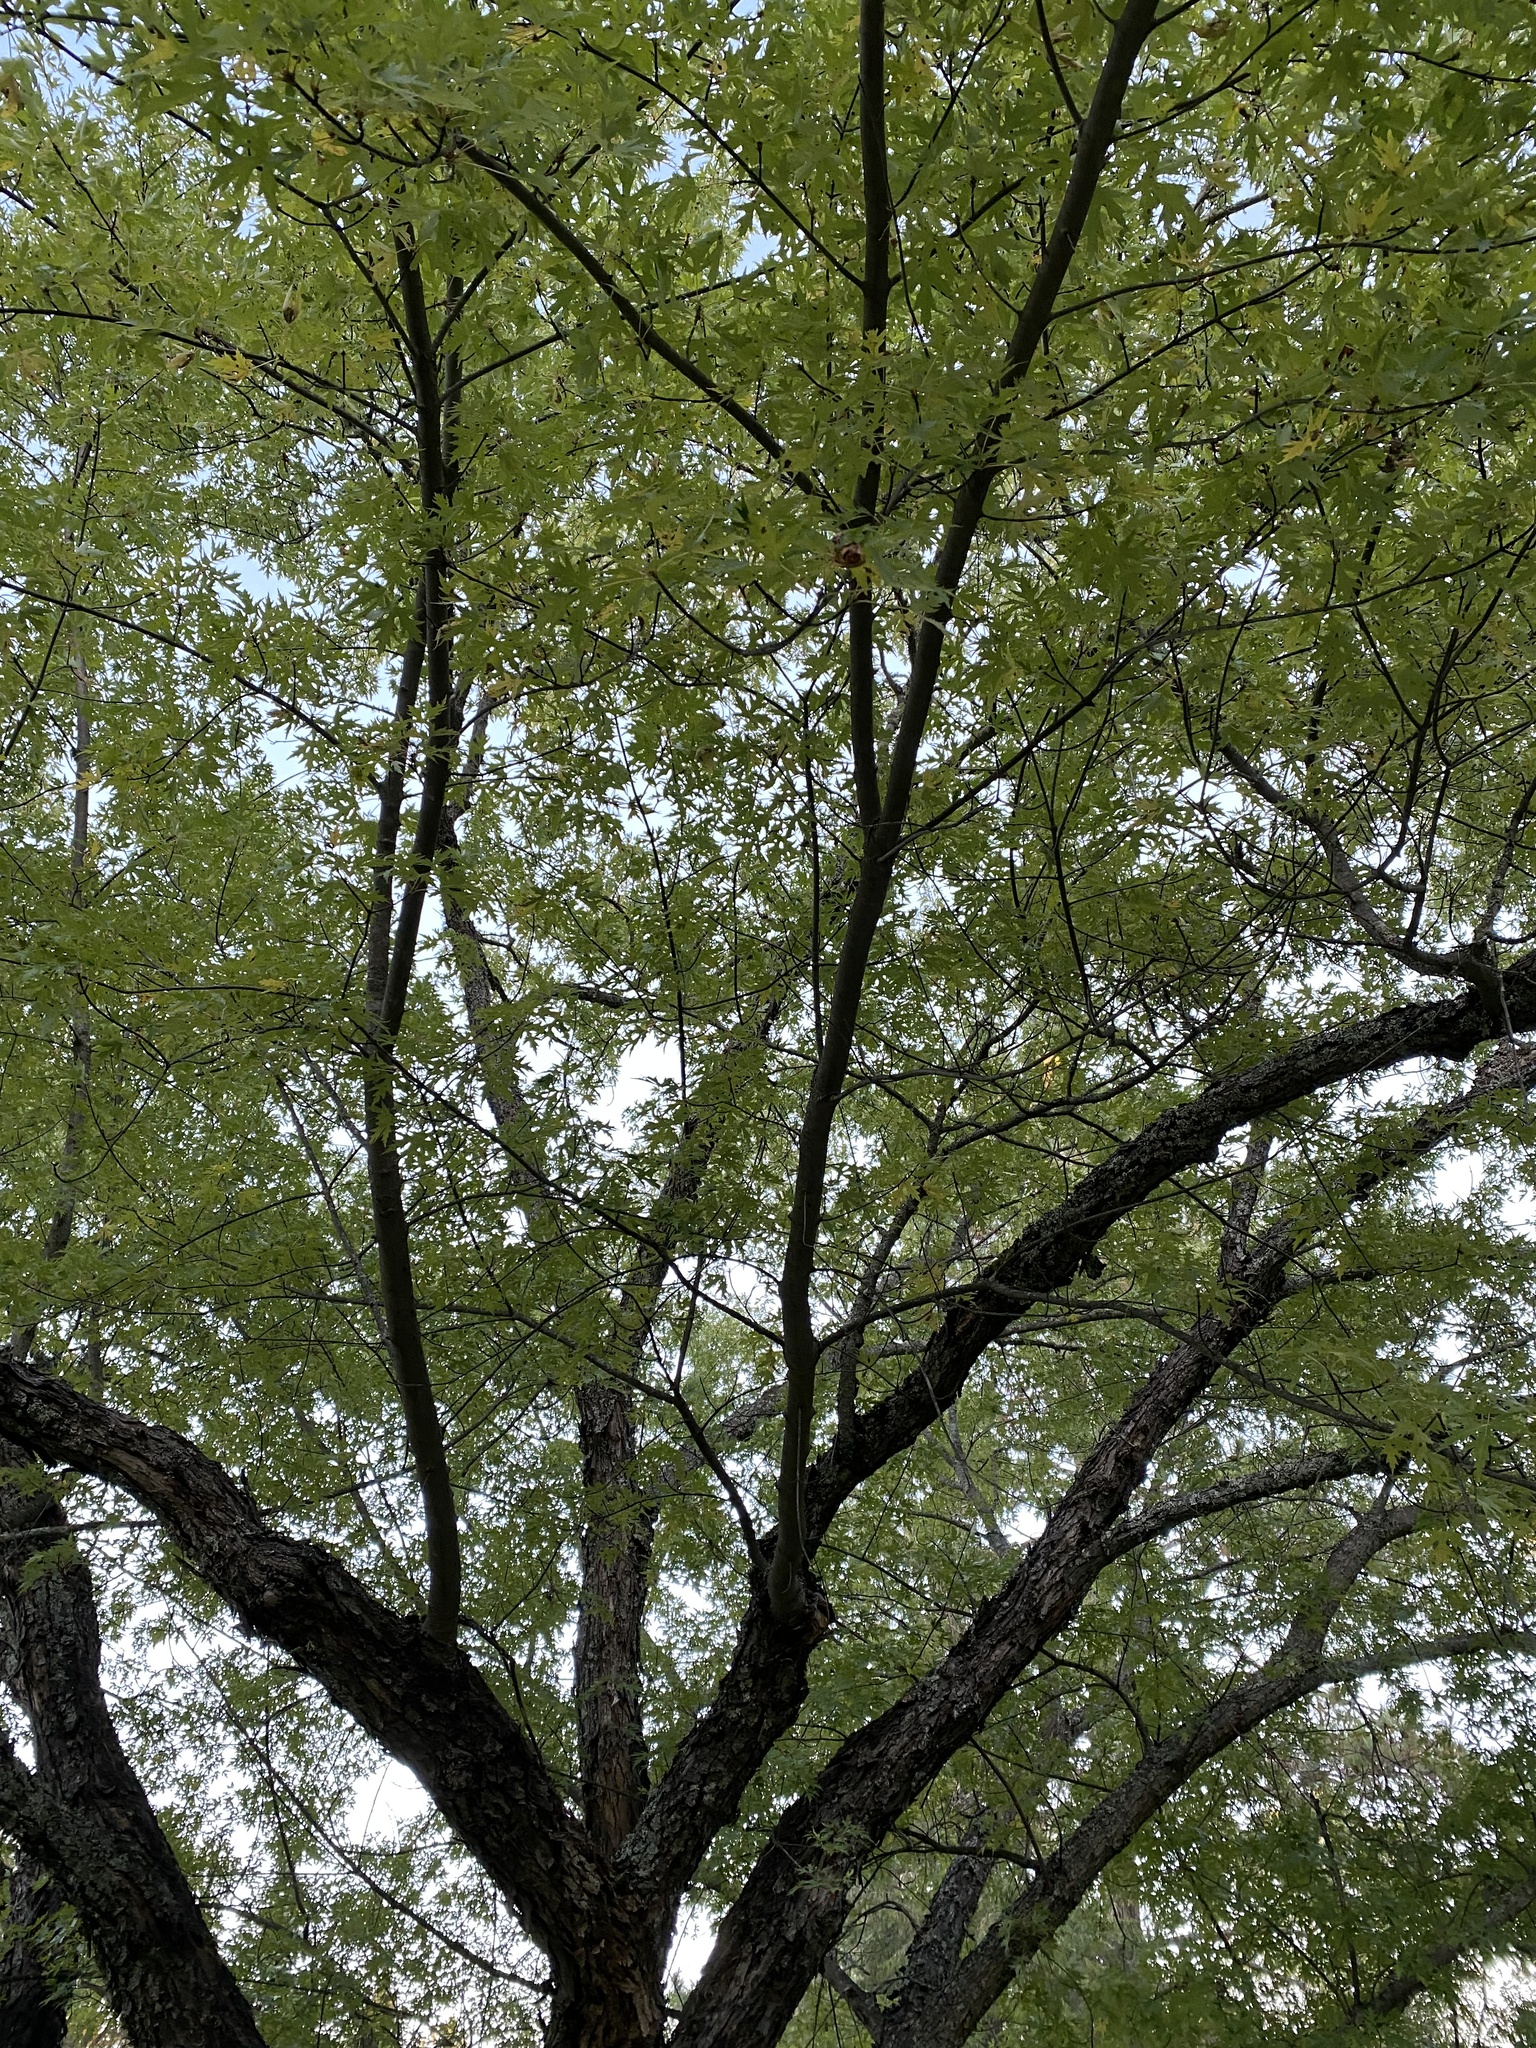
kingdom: Plantae
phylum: Tracheophyta
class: Magnoliopsida
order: Sapindales
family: Sapindaceae
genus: Acer
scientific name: Acer saccharinum
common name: Silver maple
